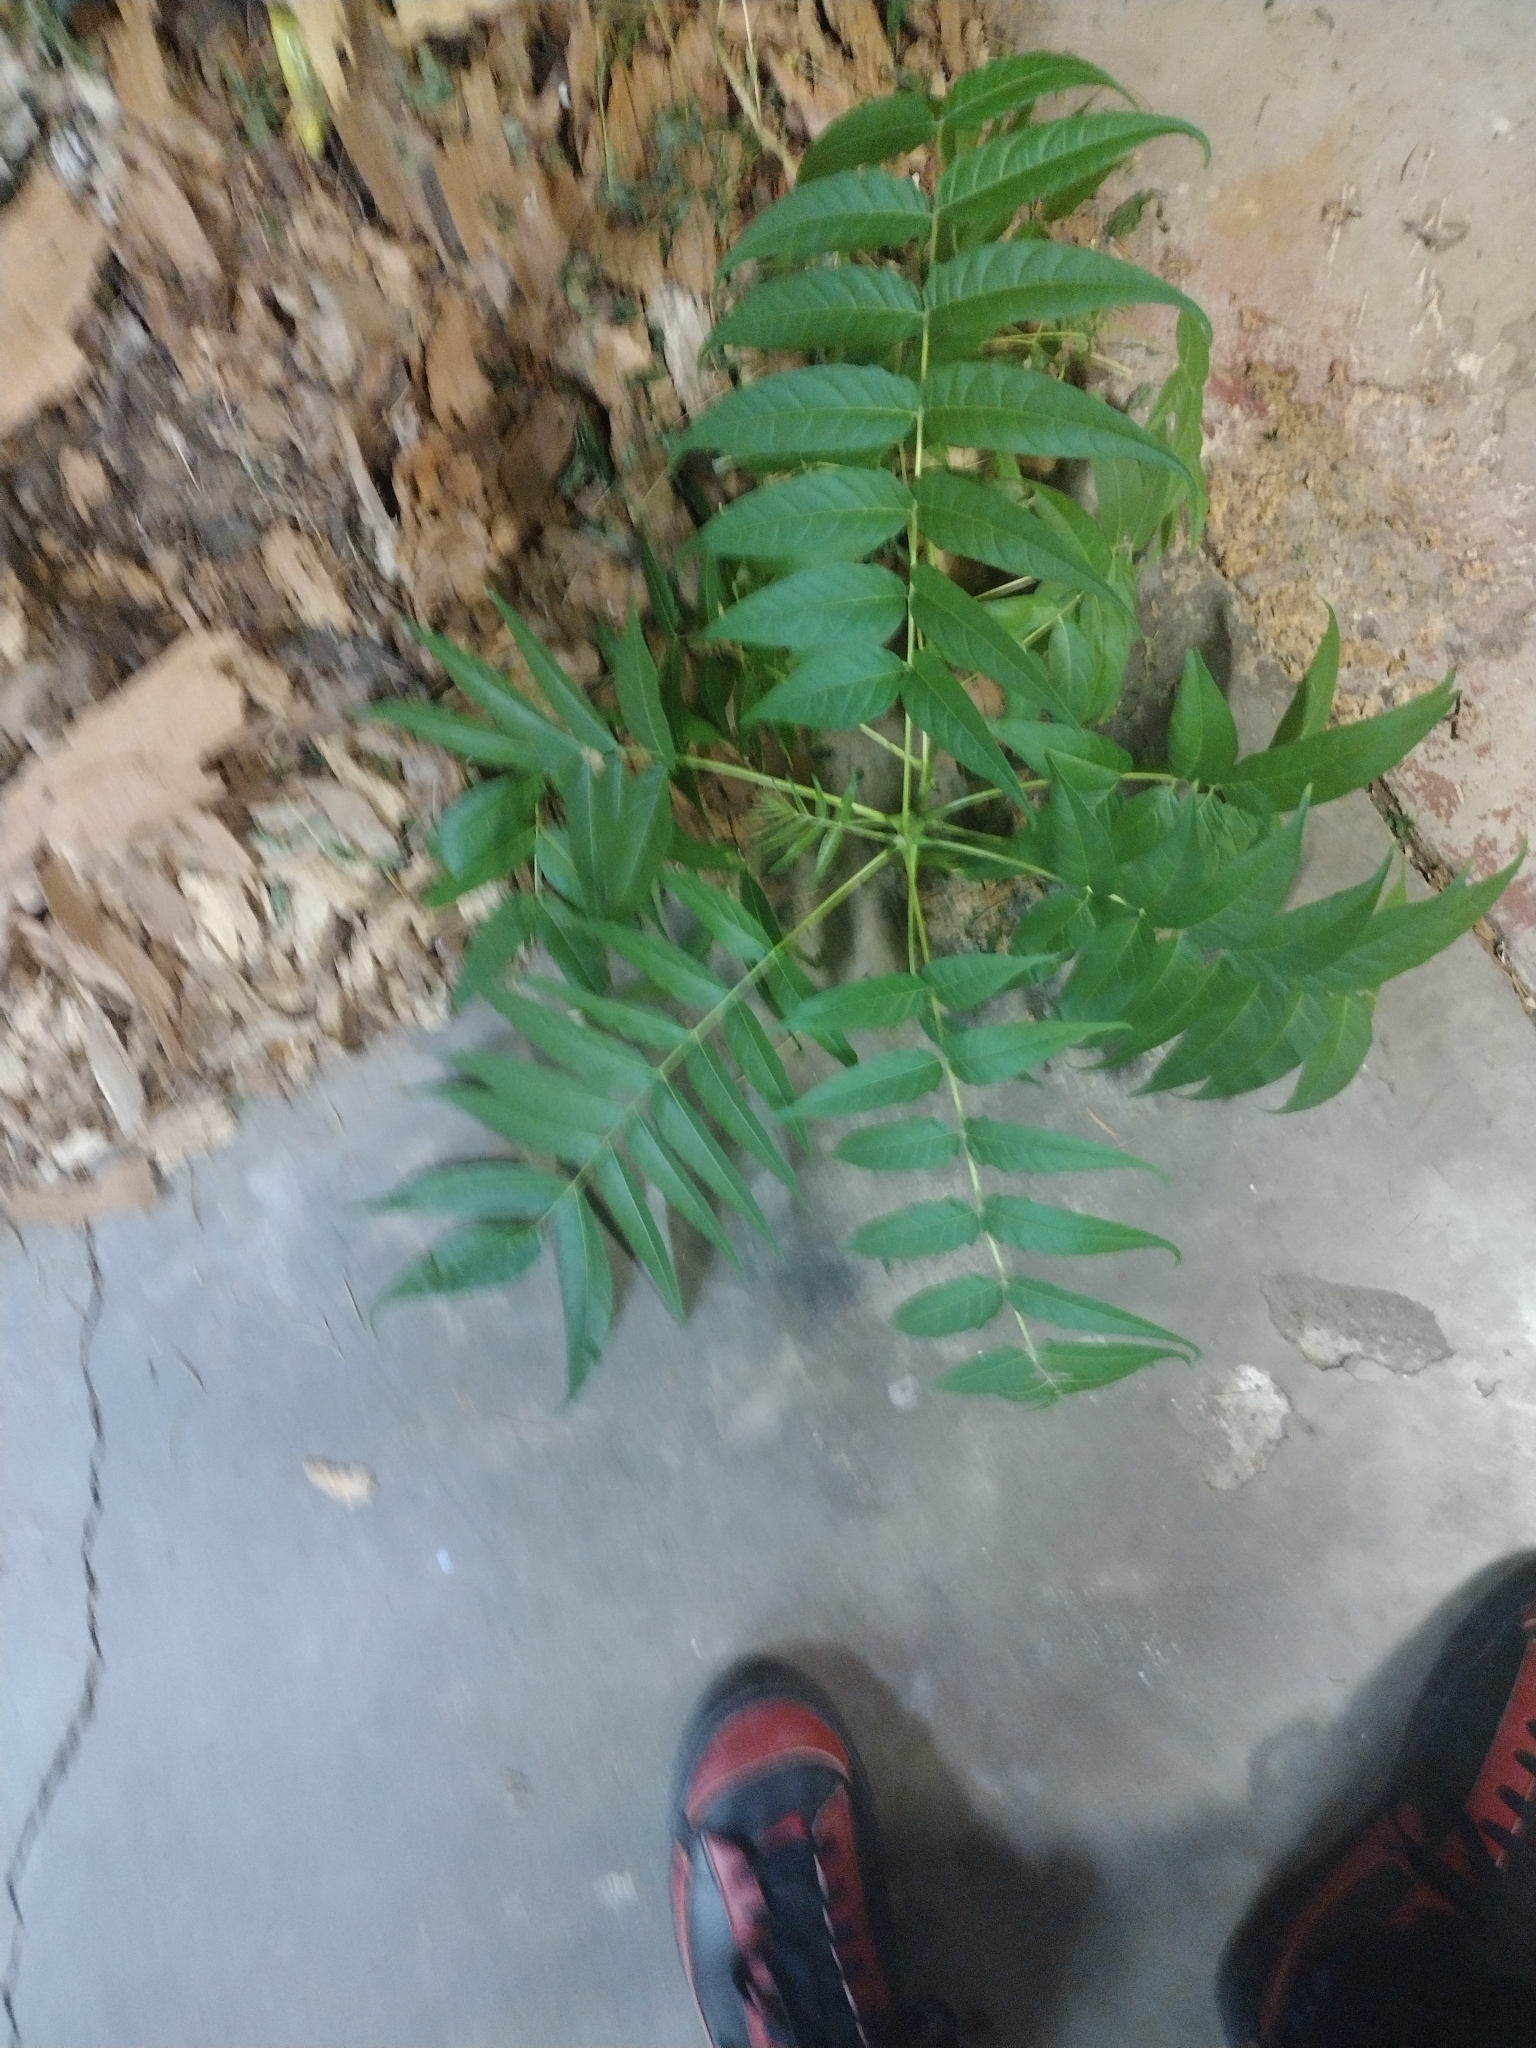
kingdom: Plantae
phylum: Tracheophyta
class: Magnoliopsida
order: Sapindales
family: Simaroubaceae
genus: Ailanthus
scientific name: Ailanthus altissima
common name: Tree-of-heaven
